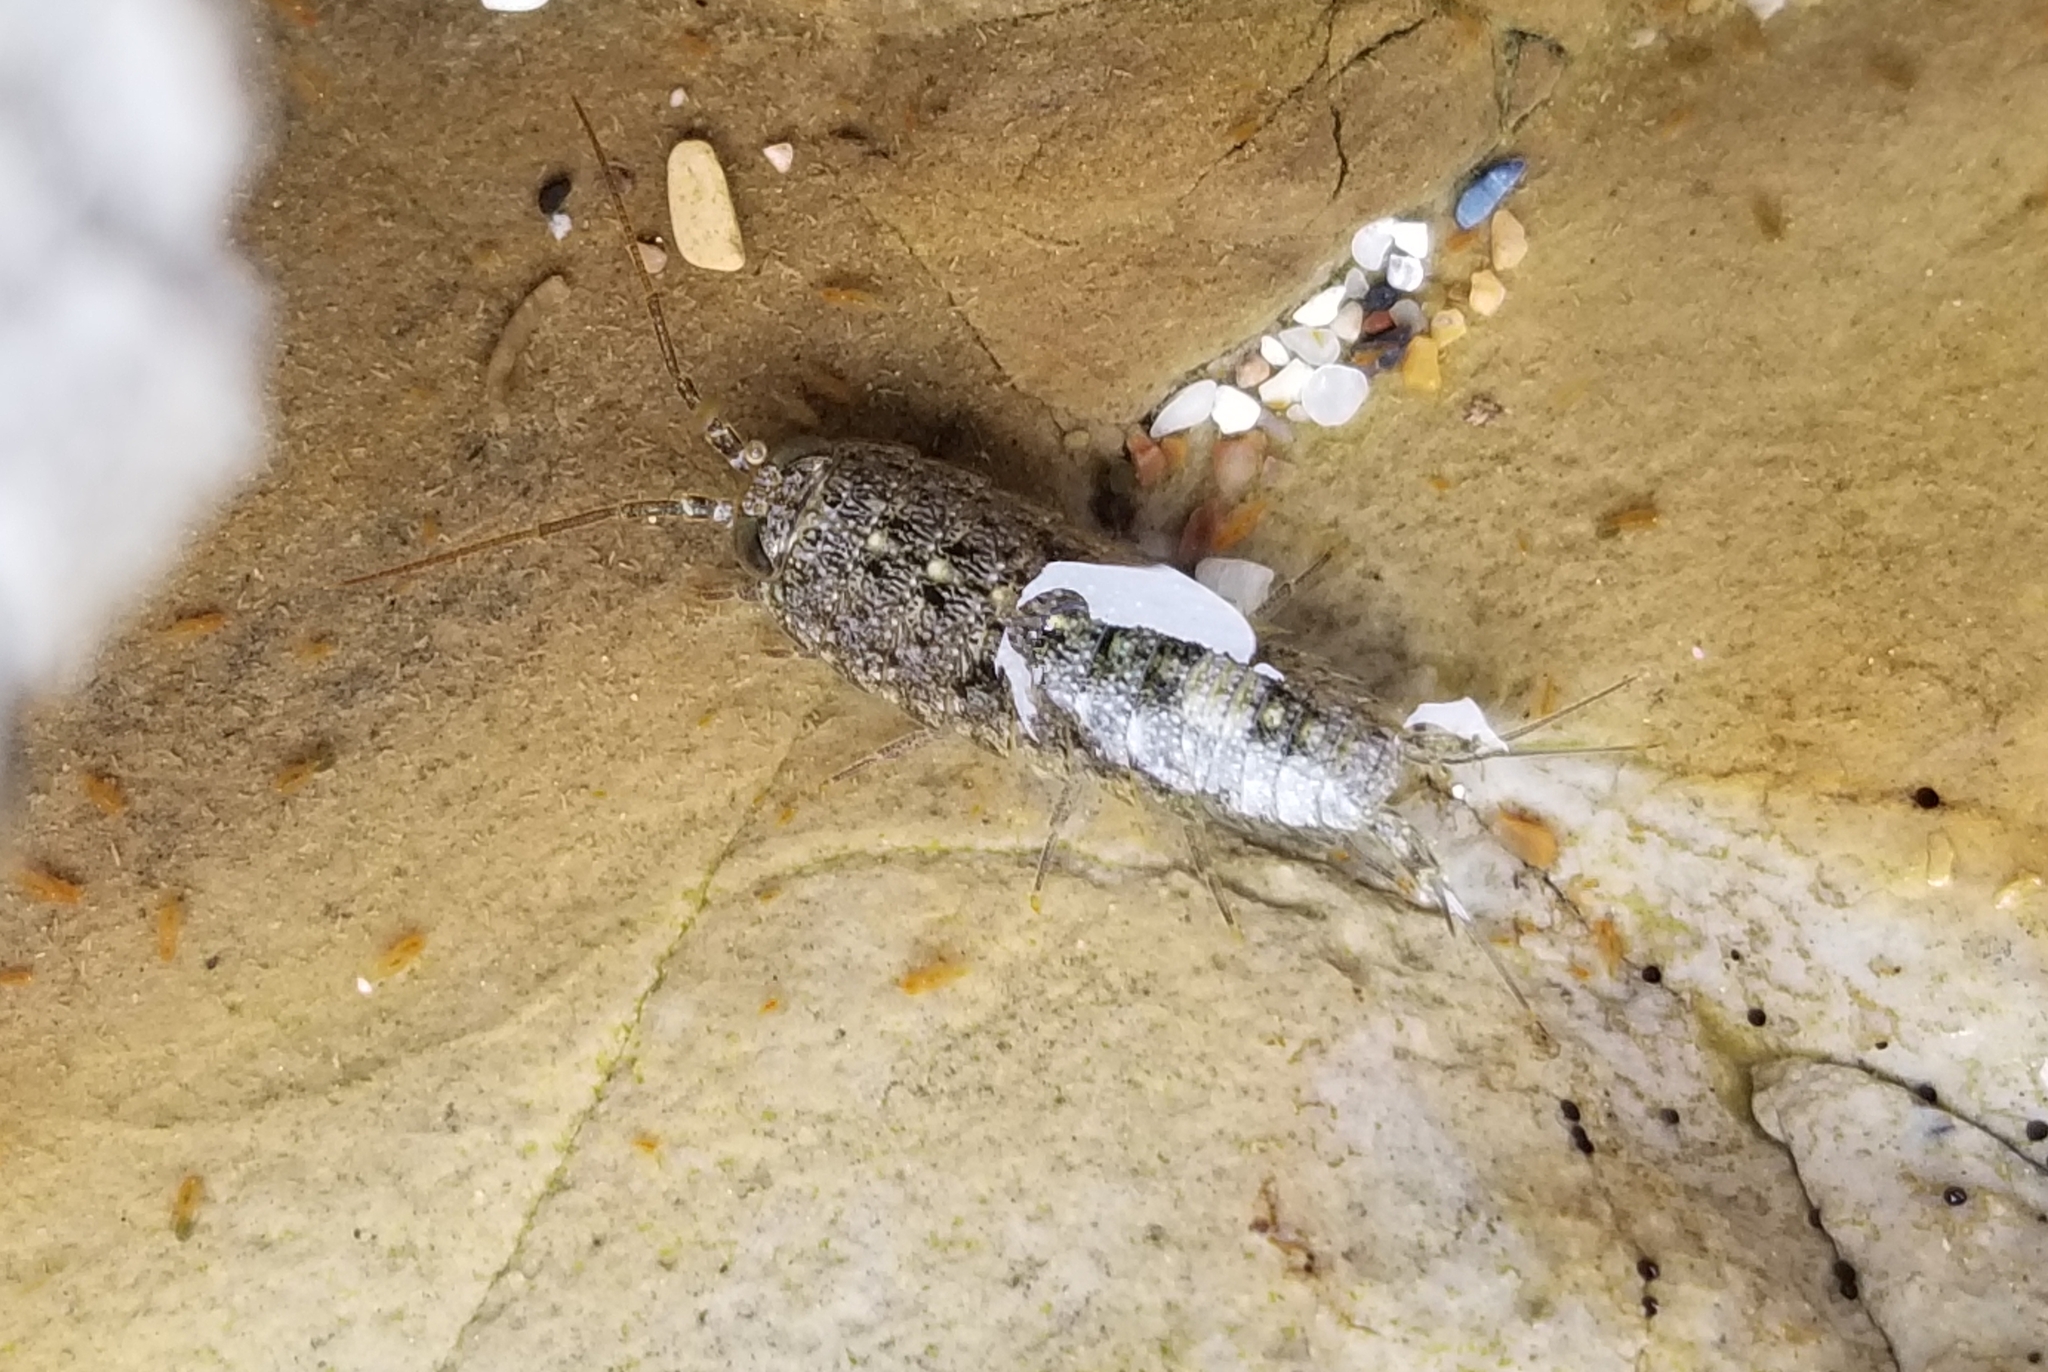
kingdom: Animalia
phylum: Arthropoda
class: Malacostraca
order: Isopoda
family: Ligiidae
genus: Ligia
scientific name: Ligia occidentalis
